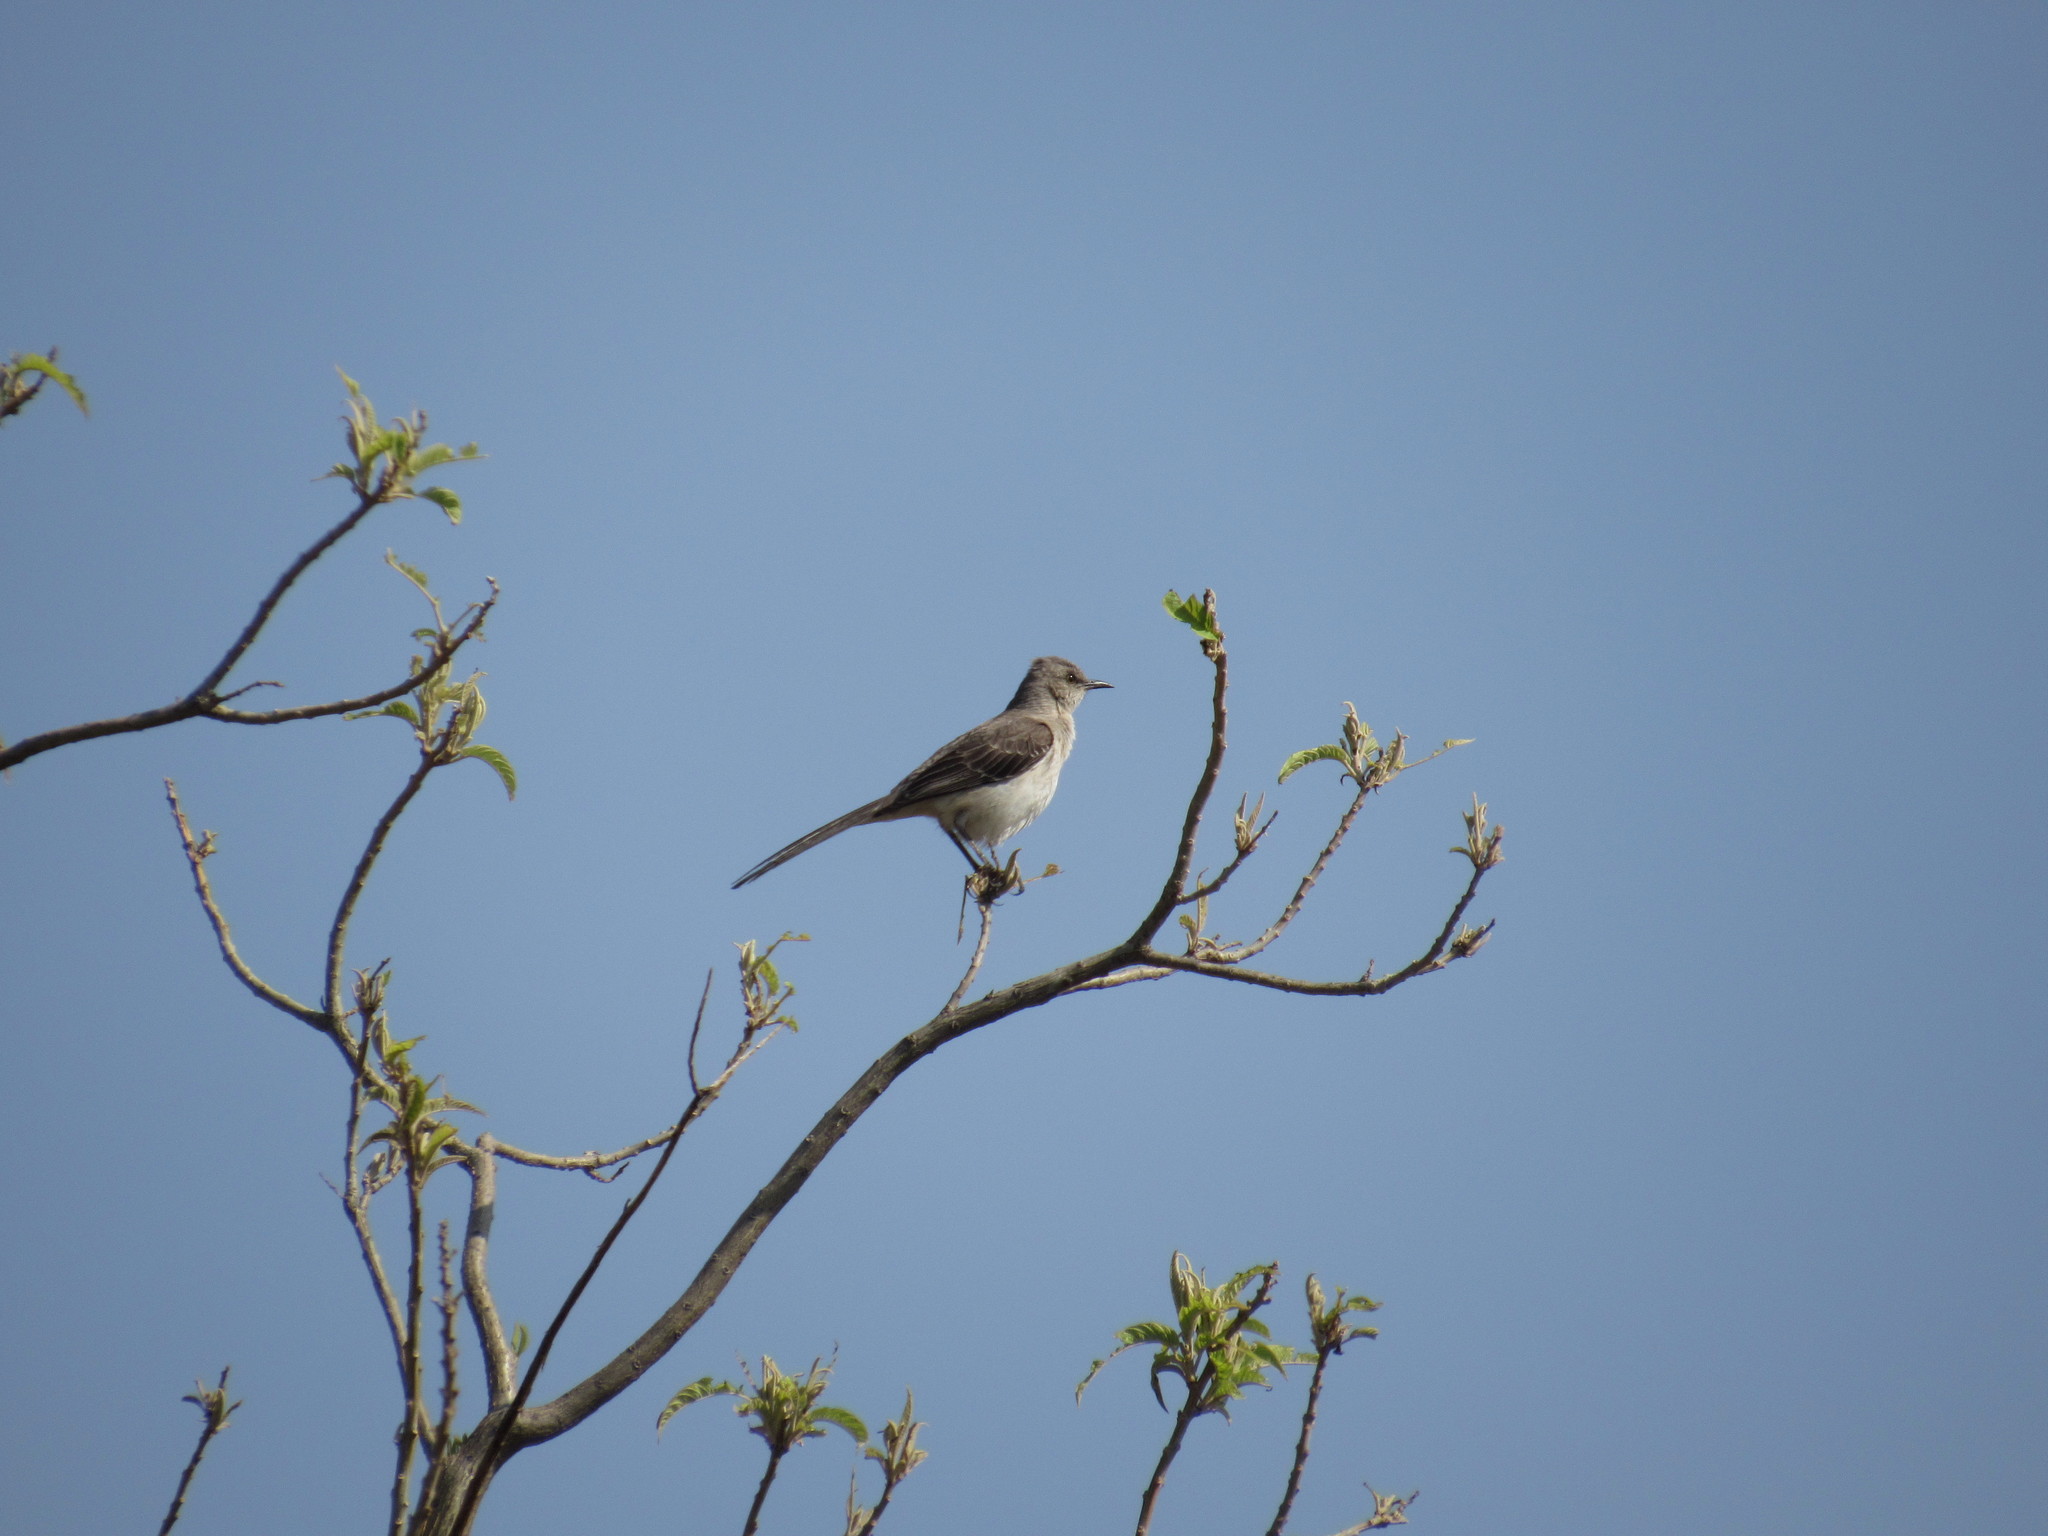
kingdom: Animalia
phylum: Chordata
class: Aves
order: Passeriformes
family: Mimidae
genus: Mimus
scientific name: Mimus polyglottos
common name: Northern mockingbird
